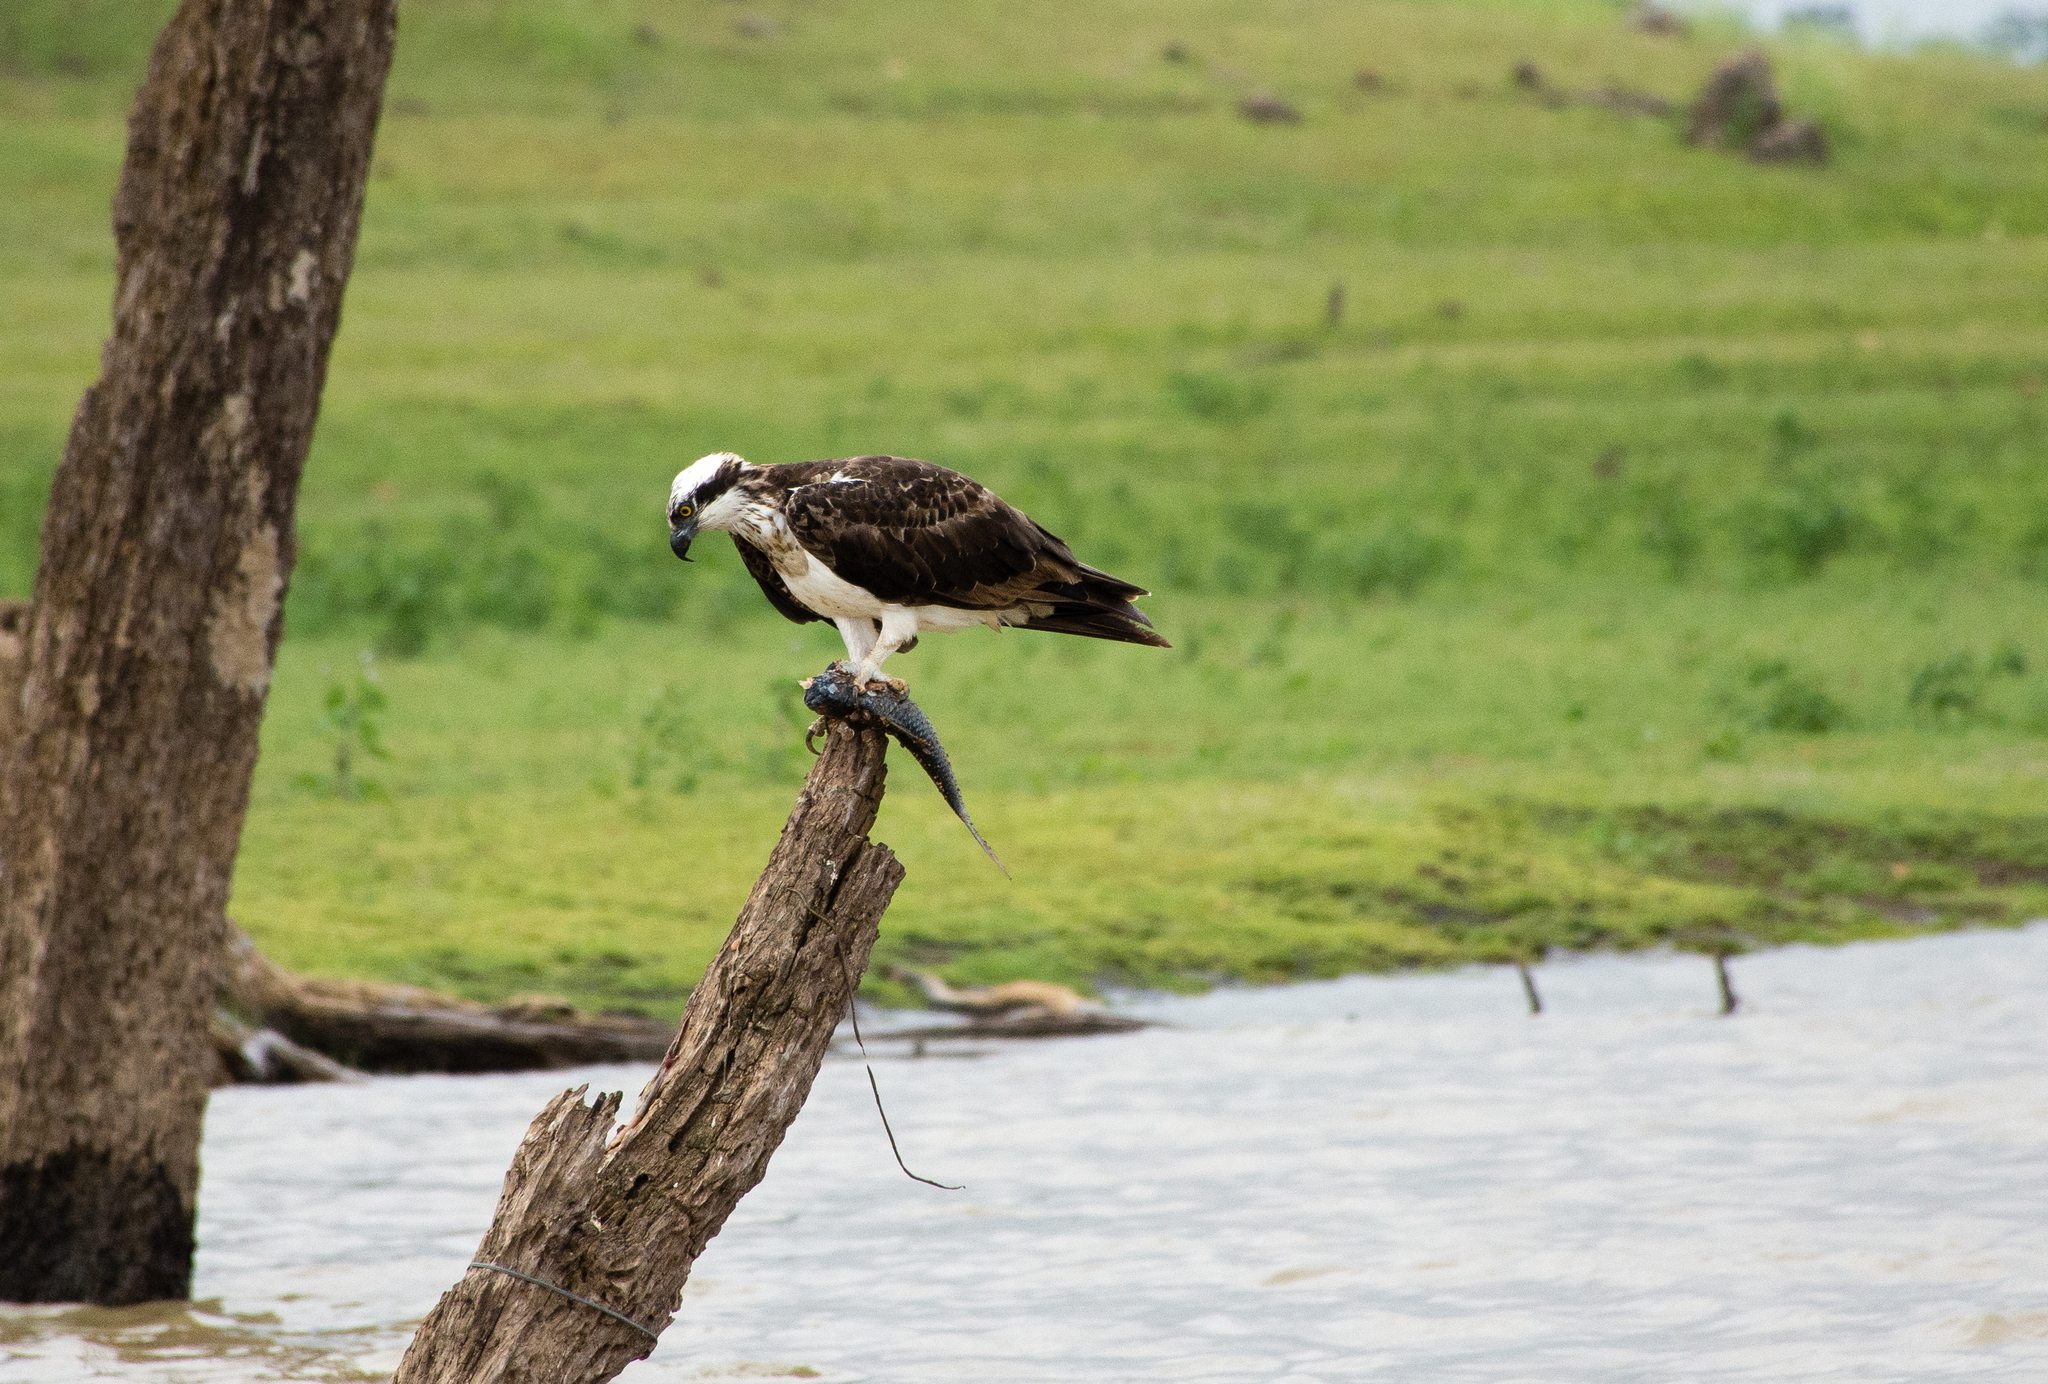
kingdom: Animalia
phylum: Chordata
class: Aves
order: Accipitriformes
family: Pandionidae
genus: Pandion
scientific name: Pandion haliaetus
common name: Osprey
